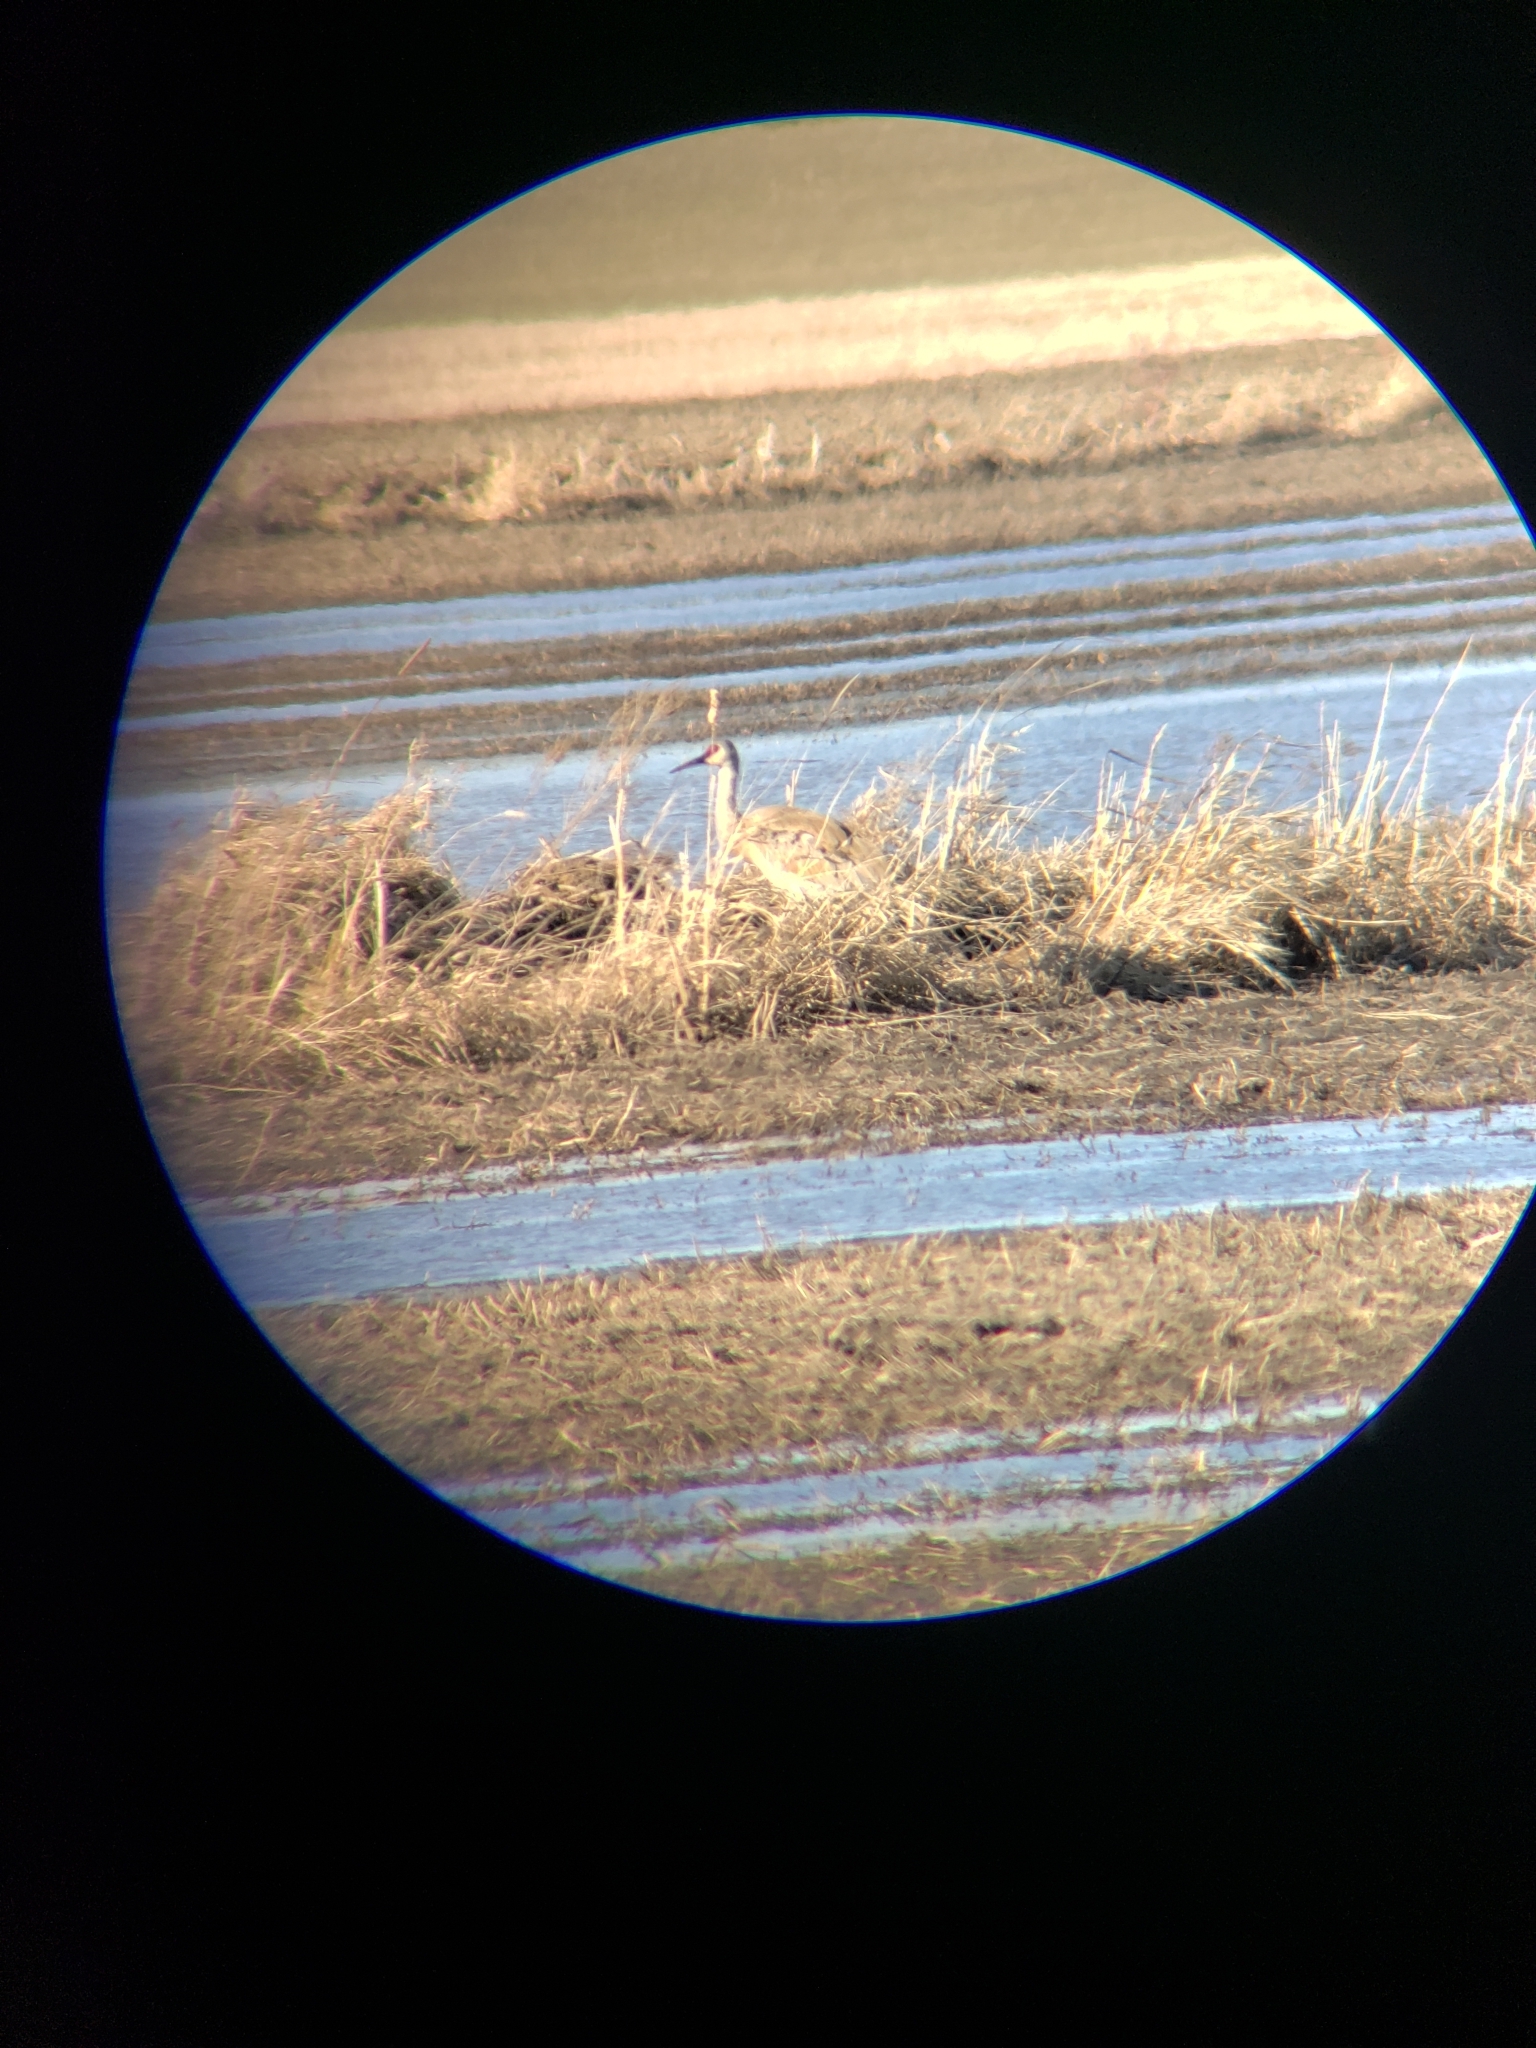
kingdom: Animalia
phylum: Chordata
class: Aves
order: Gruiformes
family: Gruidae
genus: Grus
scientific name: Grus canadensis
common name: Sandhill crane
